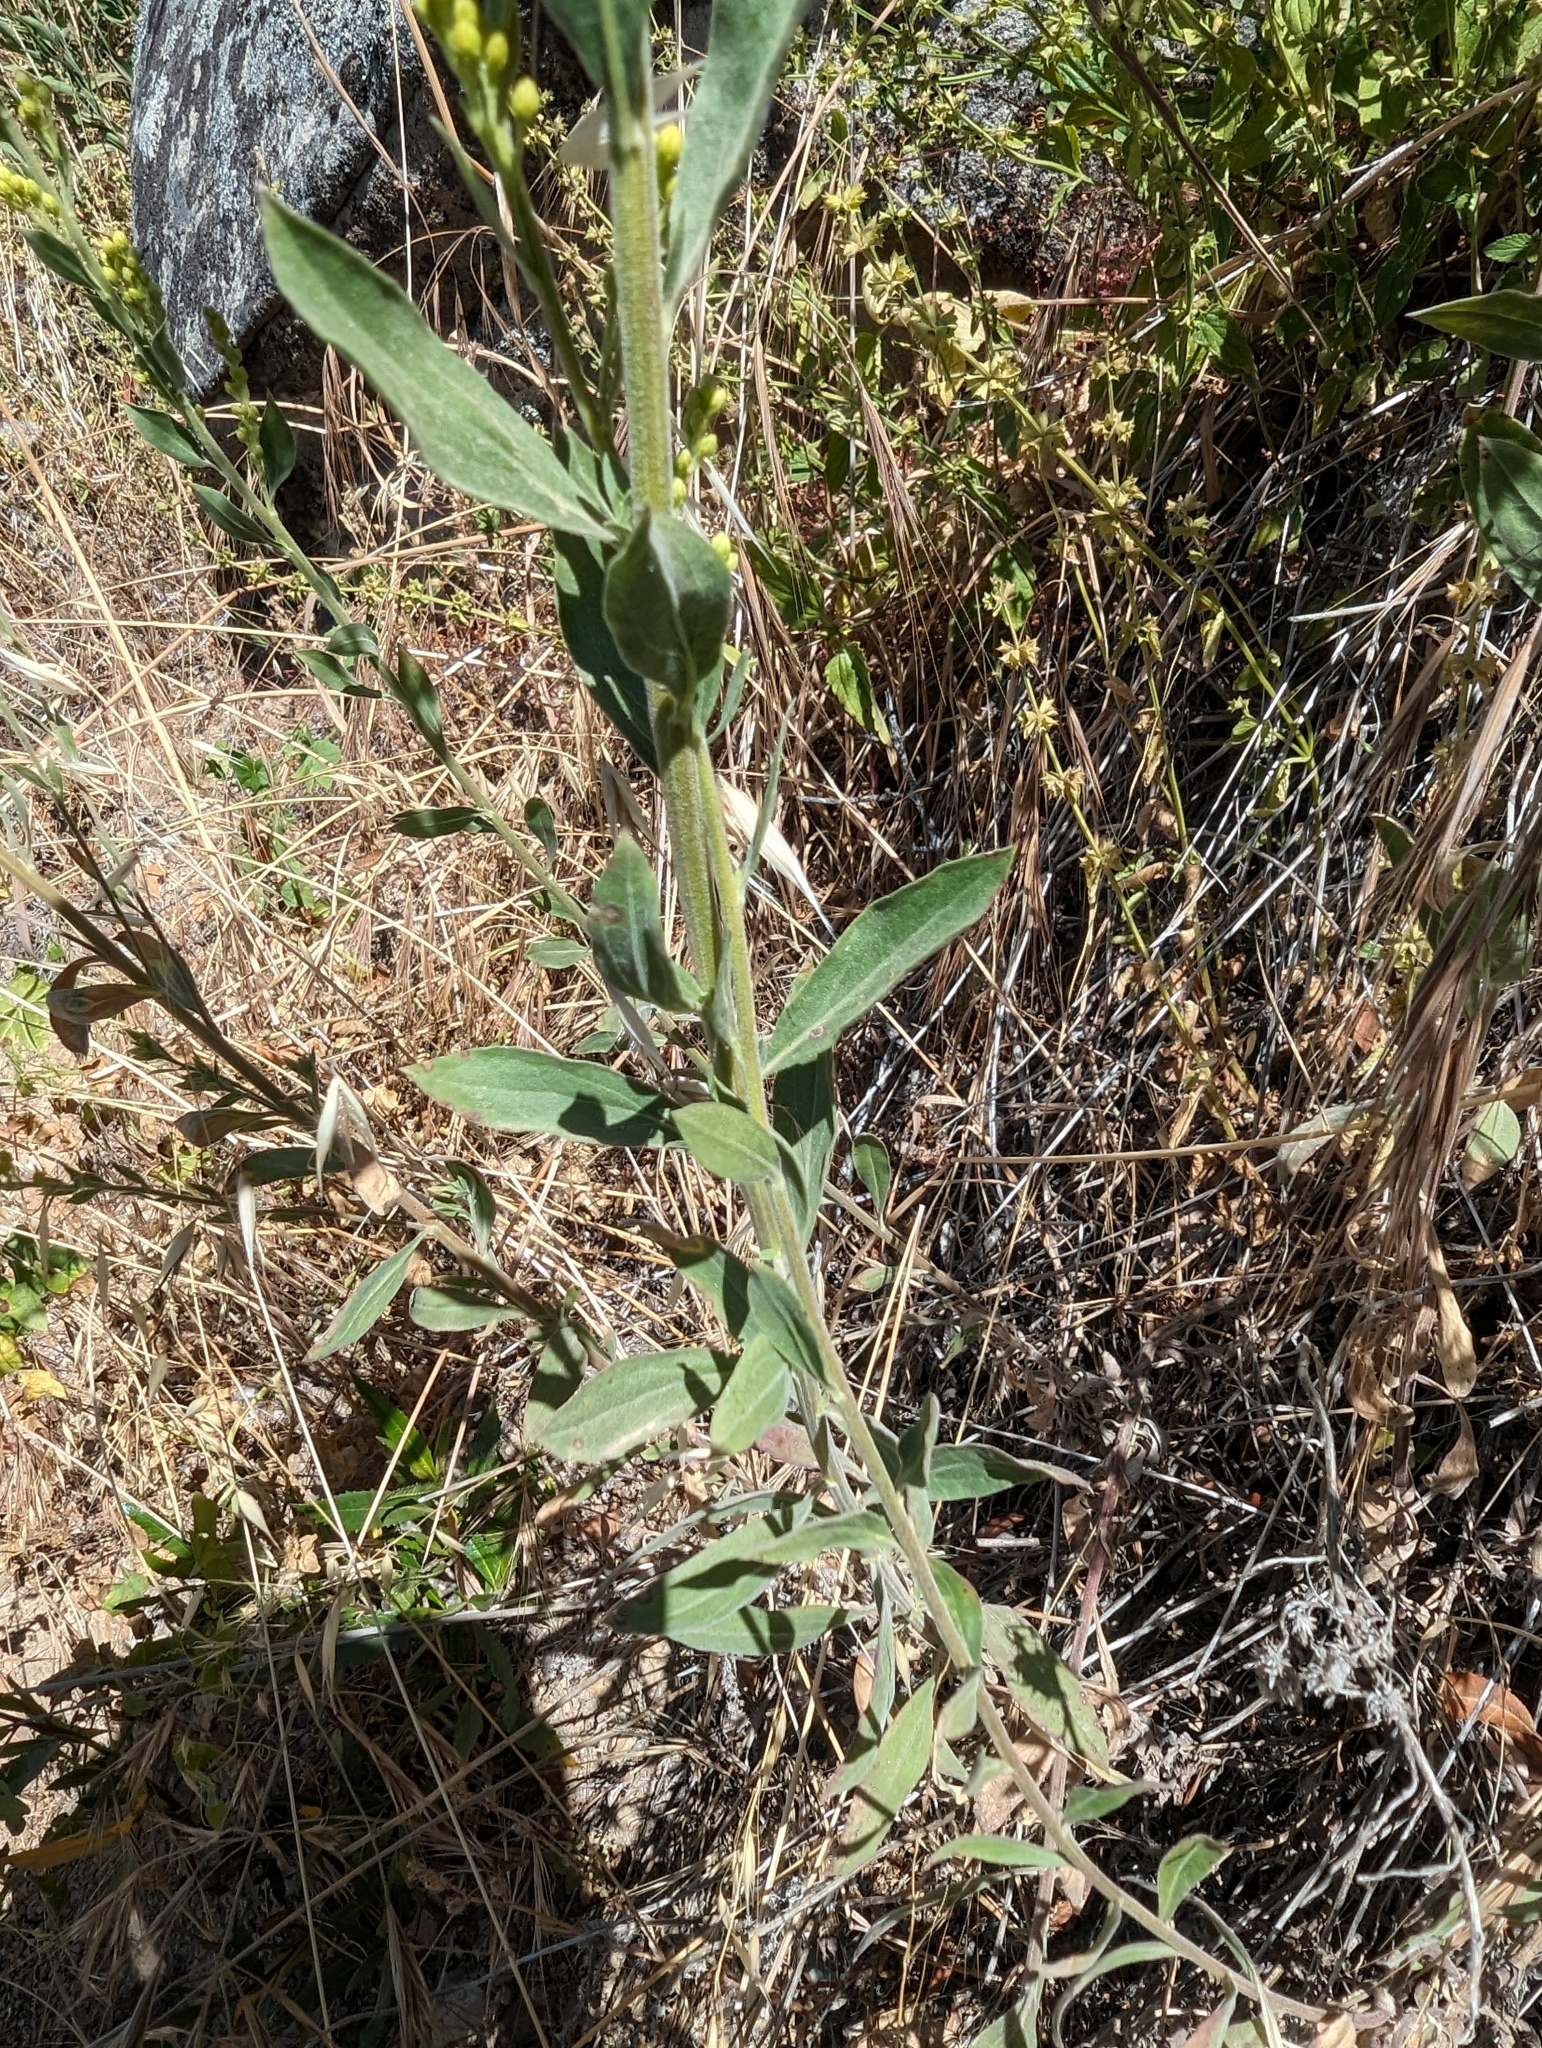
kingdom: Plantae
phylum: Tracheophyta
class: Magnoliopsida
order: Asterales
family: Asteraceae
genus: Solidago
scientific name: Solidago californica
